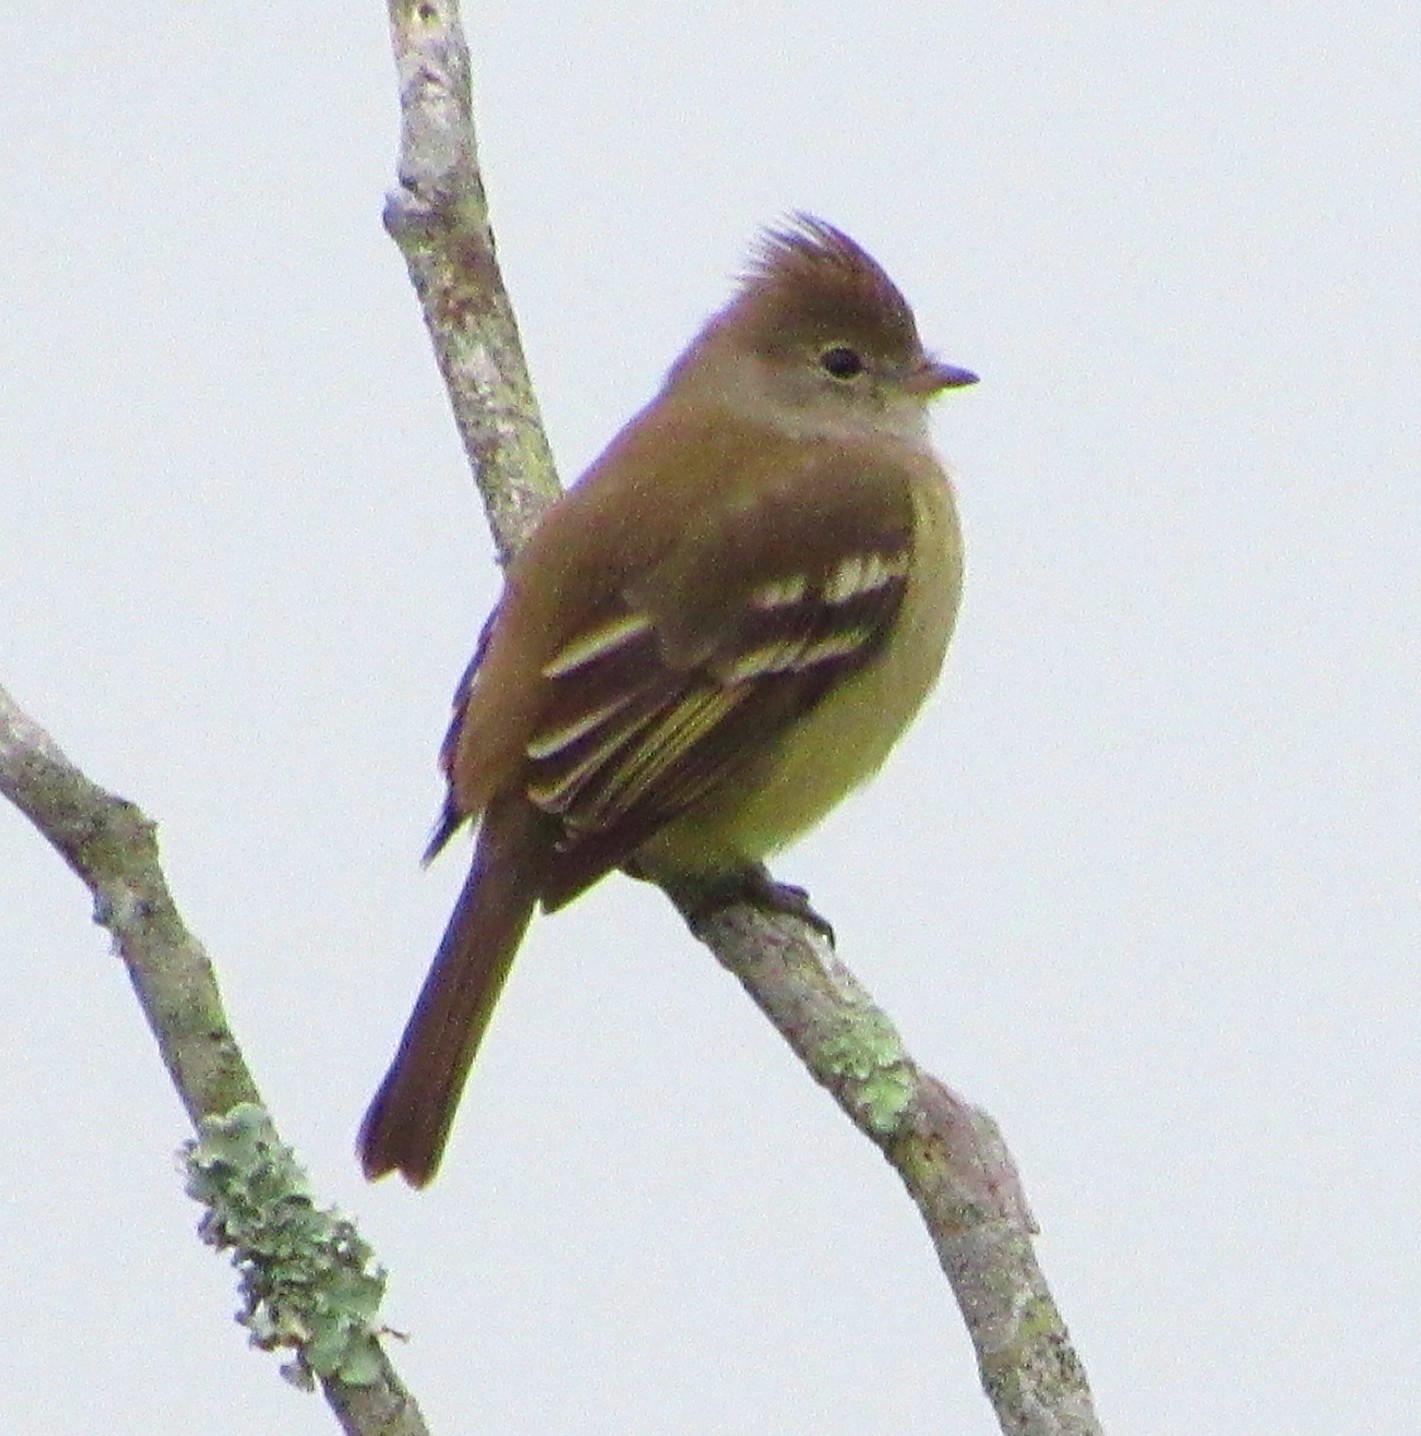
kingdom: Animalia
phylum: Chordata
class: Aves
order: Passeriformes
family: Tyrannidae
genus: Elaenia
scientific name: Elaenia flavogaster
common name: Yellow-bellied elaenia
